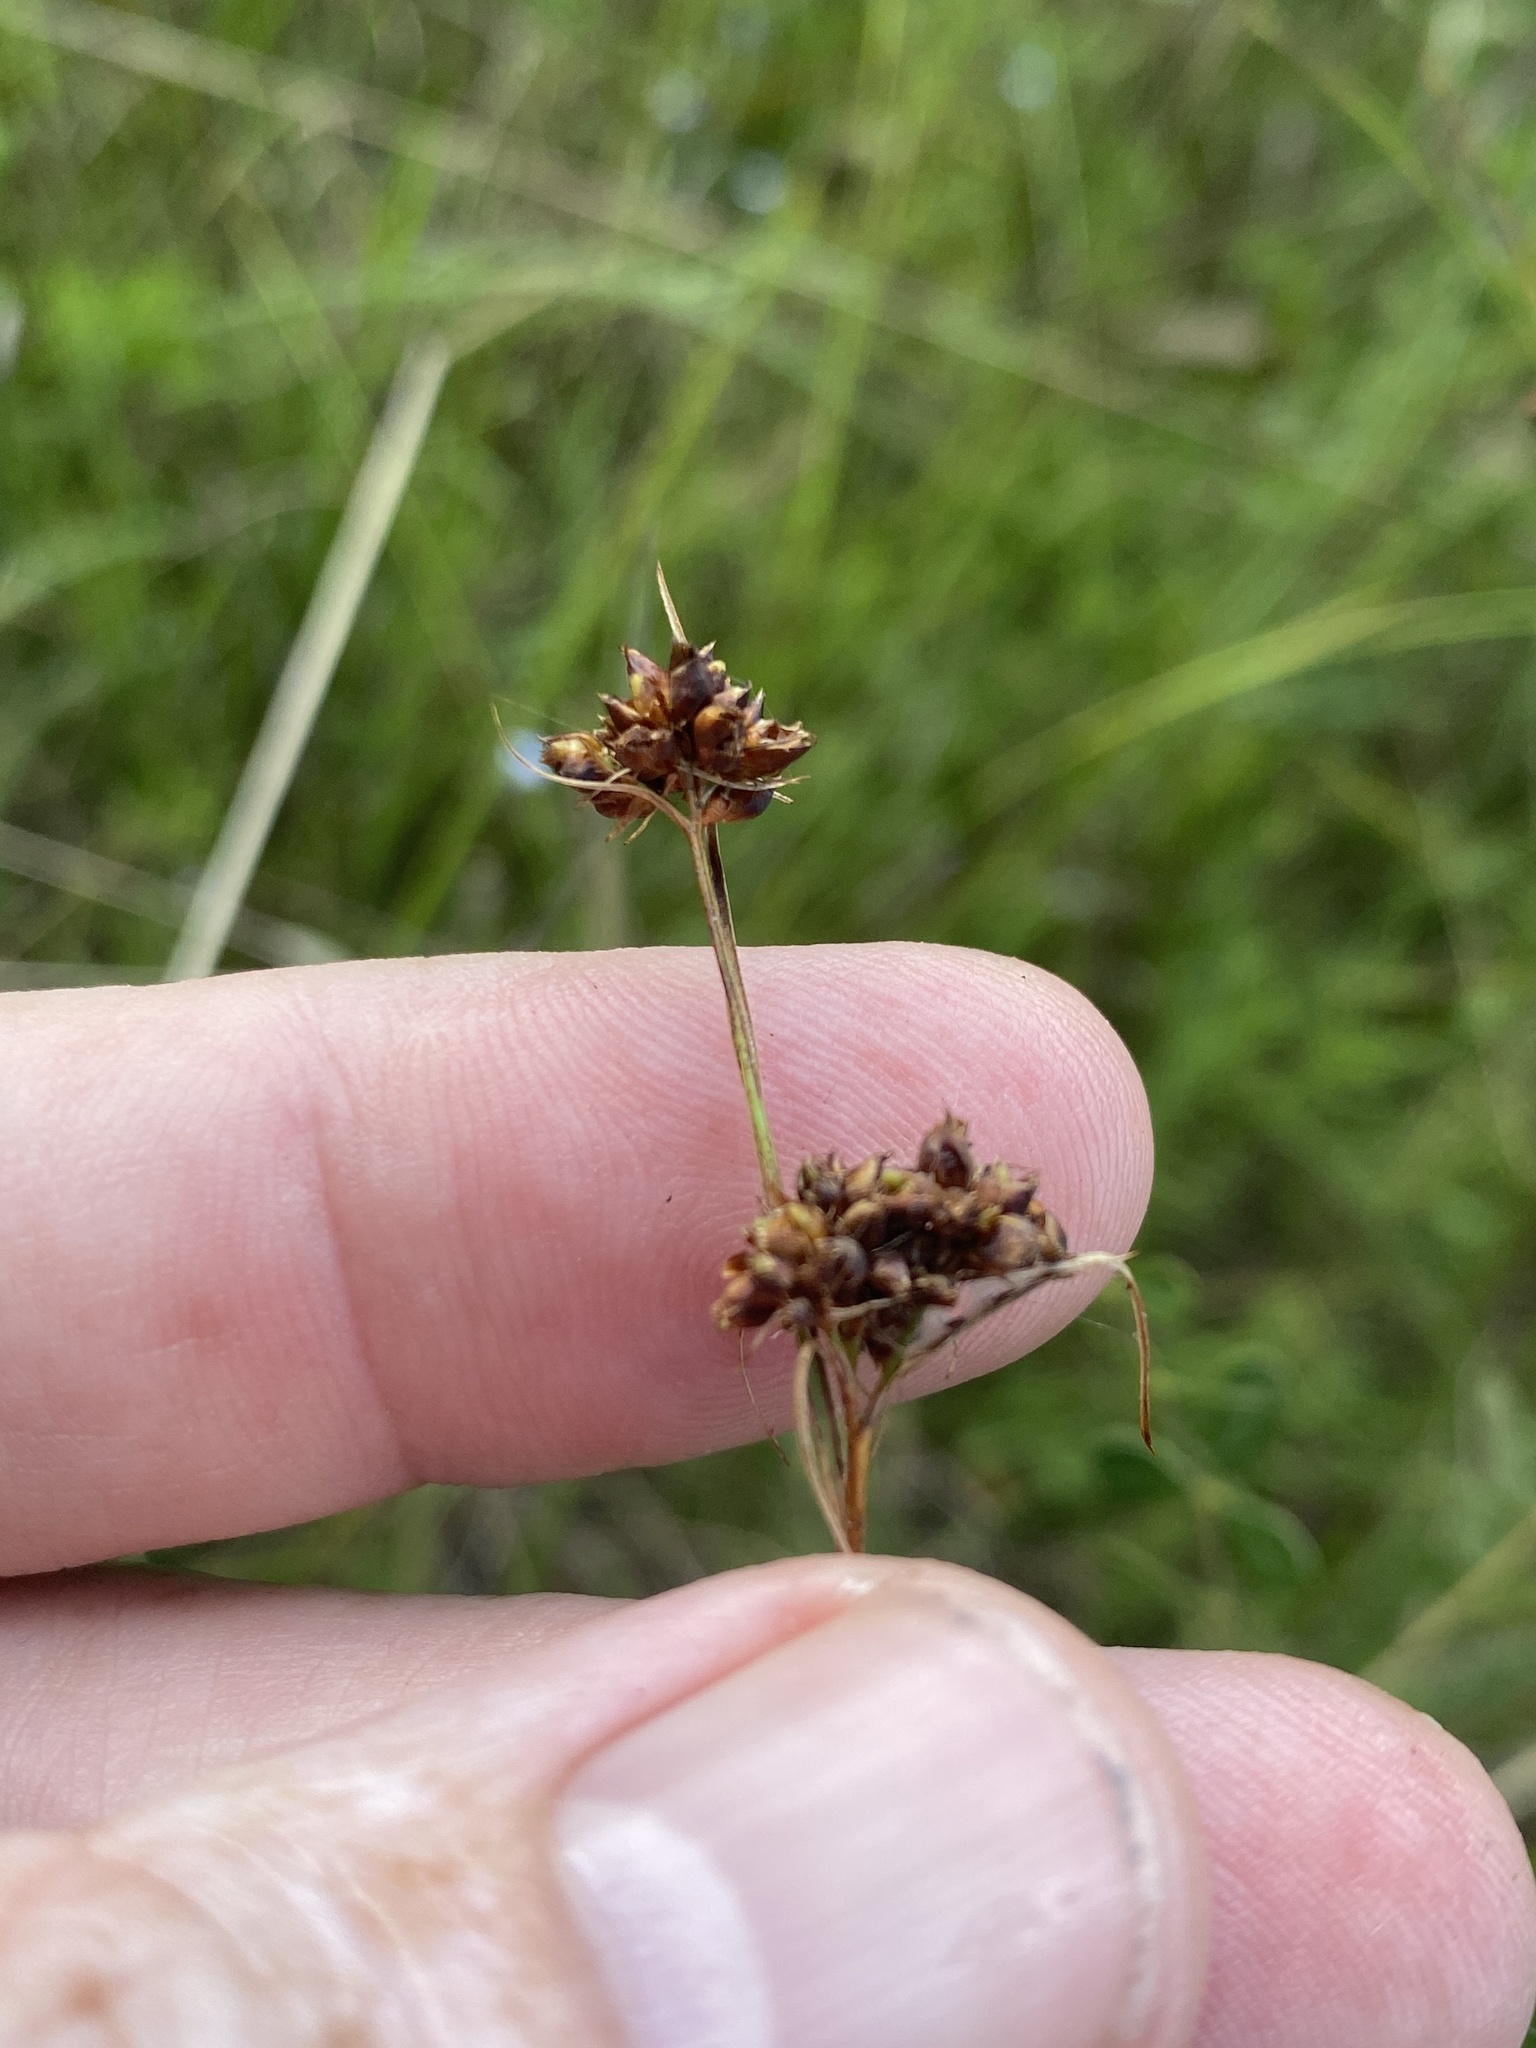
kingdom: Plantae
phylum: Tracheophyta
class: Liliopsida
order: Poales
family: Cyperaceae
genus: Rhynchospora
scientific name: Rhynchospora globularis
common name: Globe beaksedge
